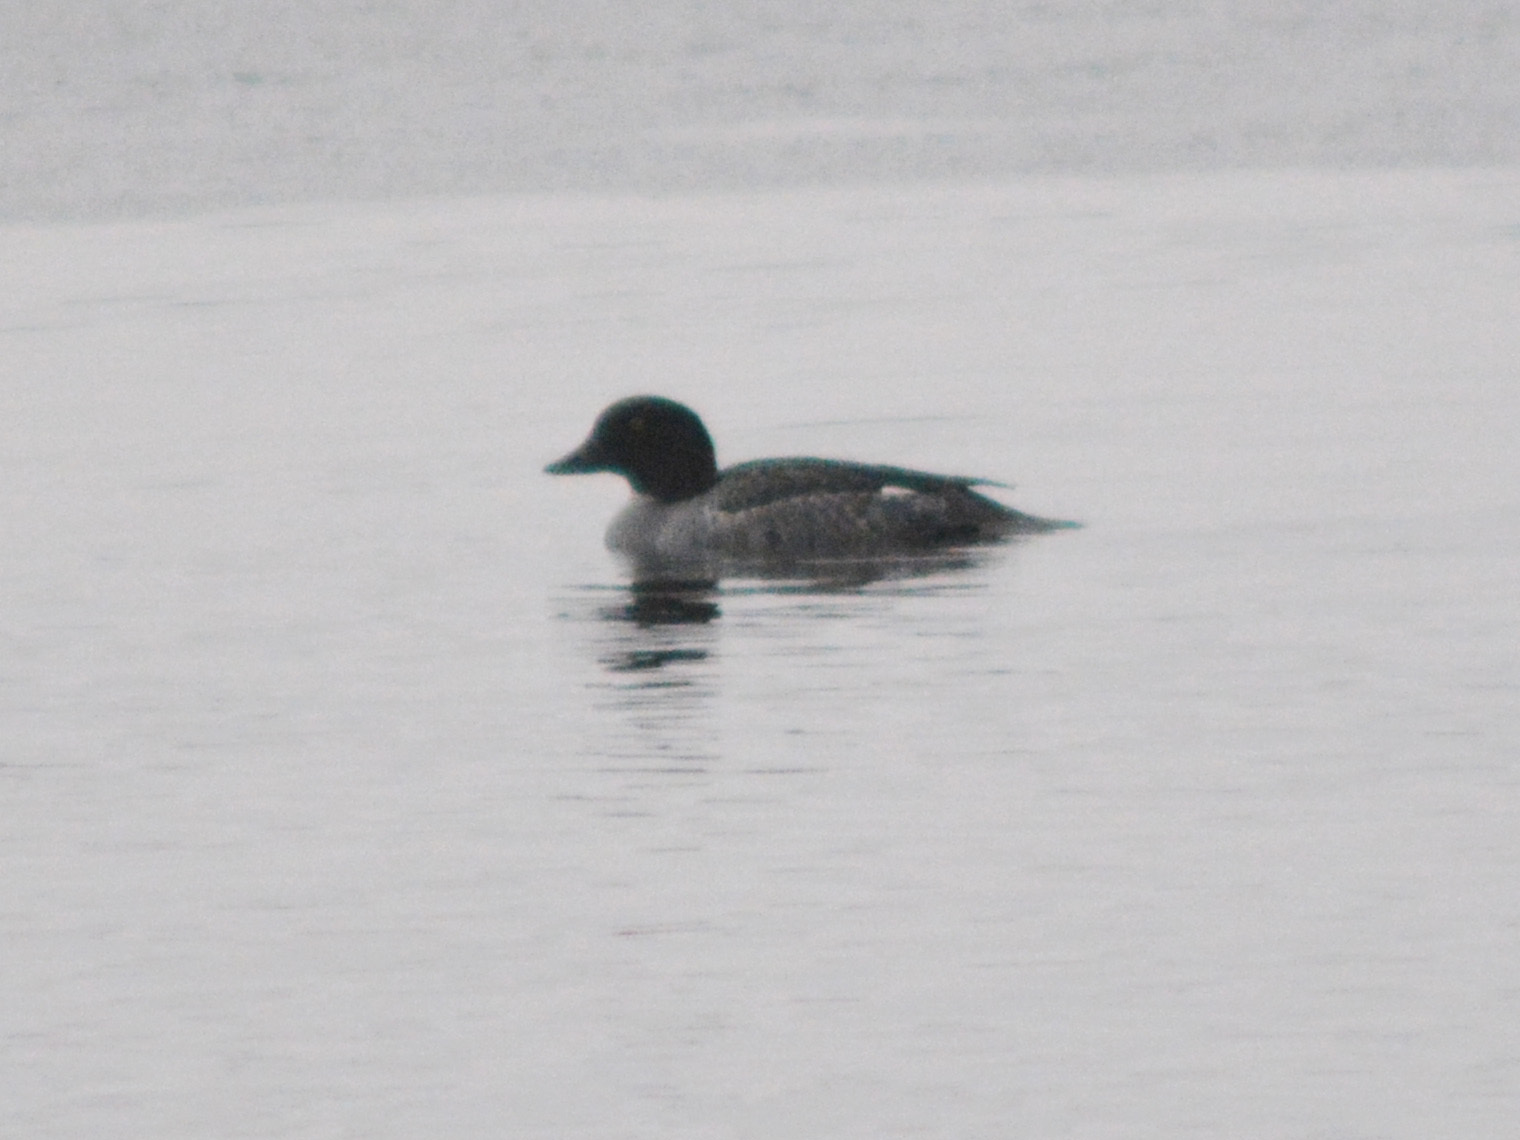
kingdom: Animalia
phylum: Chordata
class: Aves
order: Anseriformes
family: Anatidae
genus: Bucephala
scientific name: Bucephala clangula
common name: Common goldeneye
